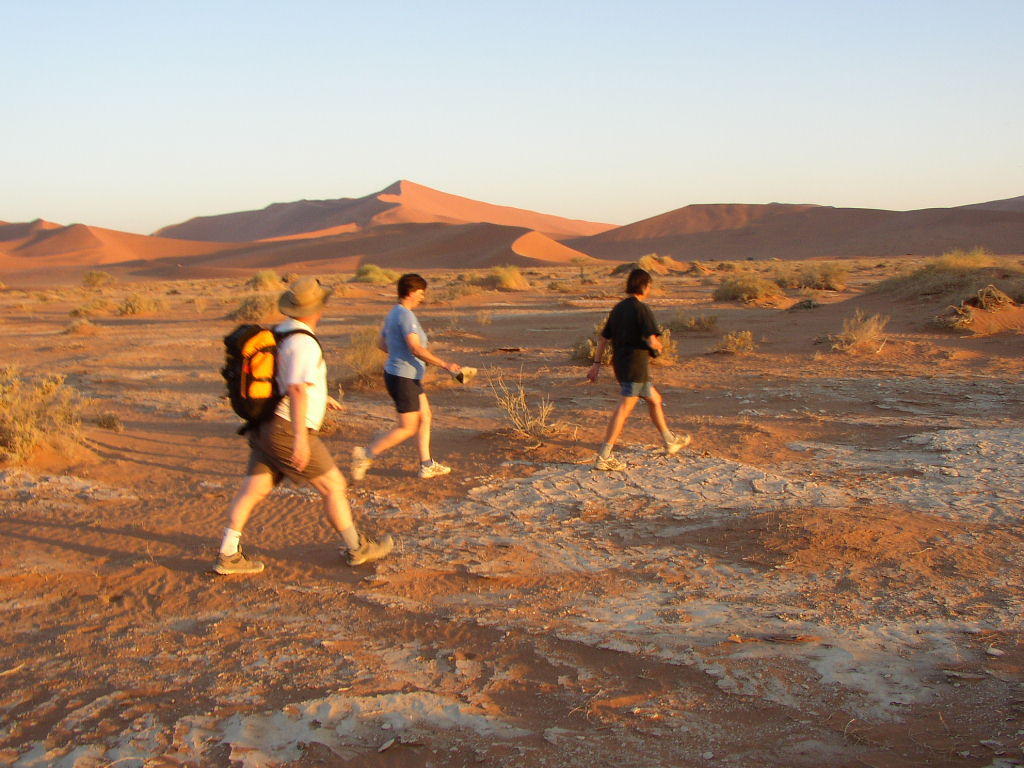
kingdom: Plantae
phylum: Tracheophyta
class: Magnoliopsida
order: Cucurbitales
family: Cucurbitaceae
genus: Acanthosicyos
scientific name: Acanthosicyos horridus
